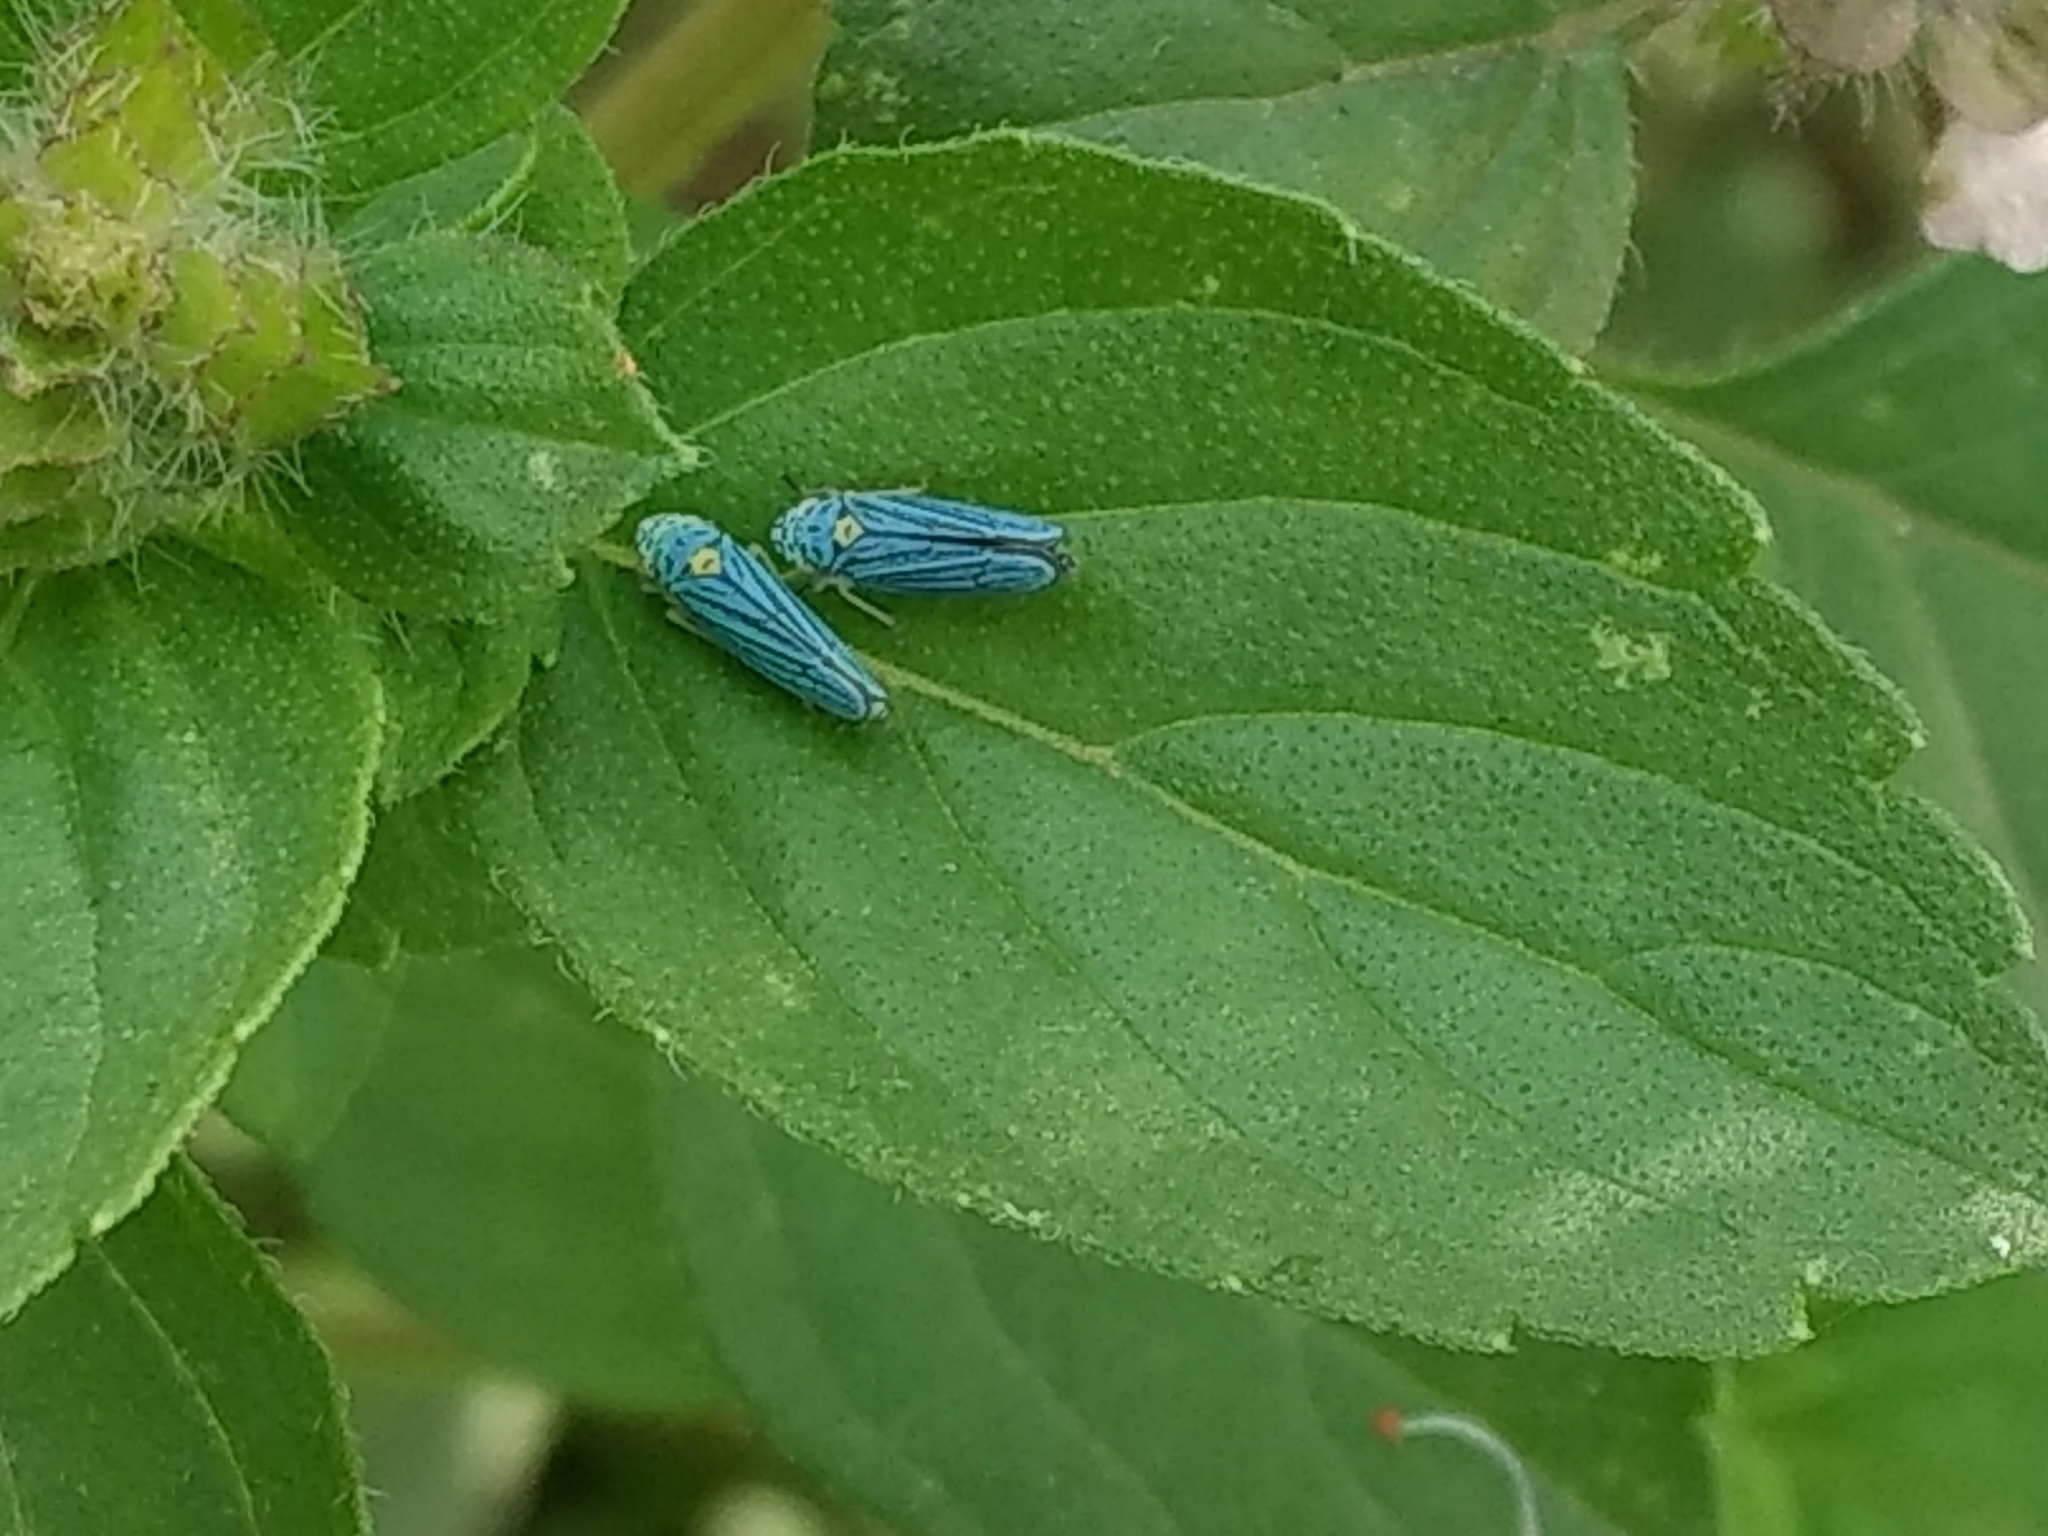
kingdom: Animalia
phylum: Arthropoda
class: Insecta
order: Hemiptera
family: Cicadellidae
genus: Graphocephala
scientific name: Graphocephala atropunctata
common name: Blue-green sharpshooter
